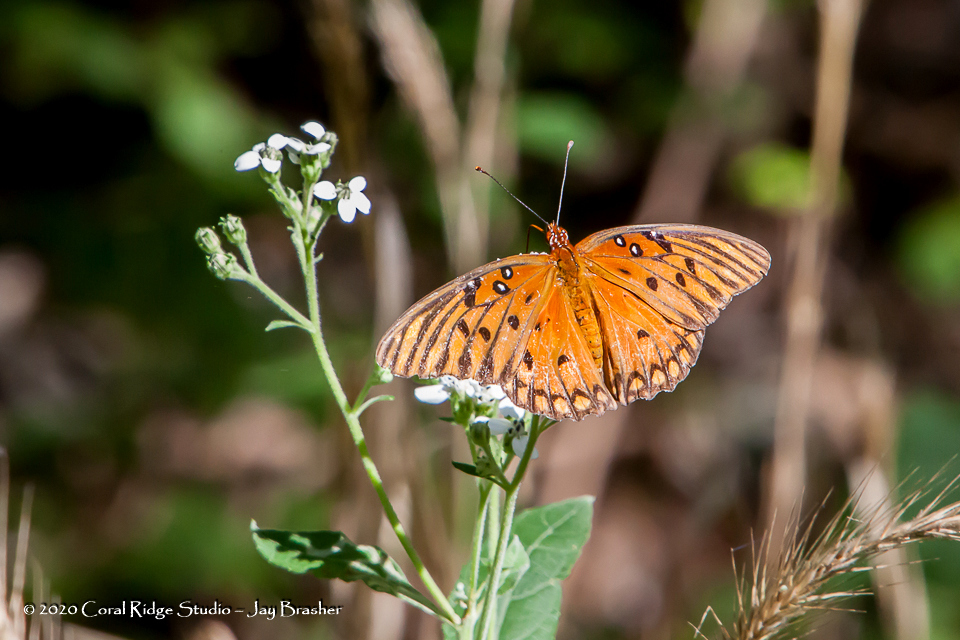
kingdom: Animalia
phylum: Arthropoda
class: Insecta
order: Lepidoptera
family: Nymphalidae
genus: Dione
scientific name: Dione vanillae
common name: Gulf fritillary
